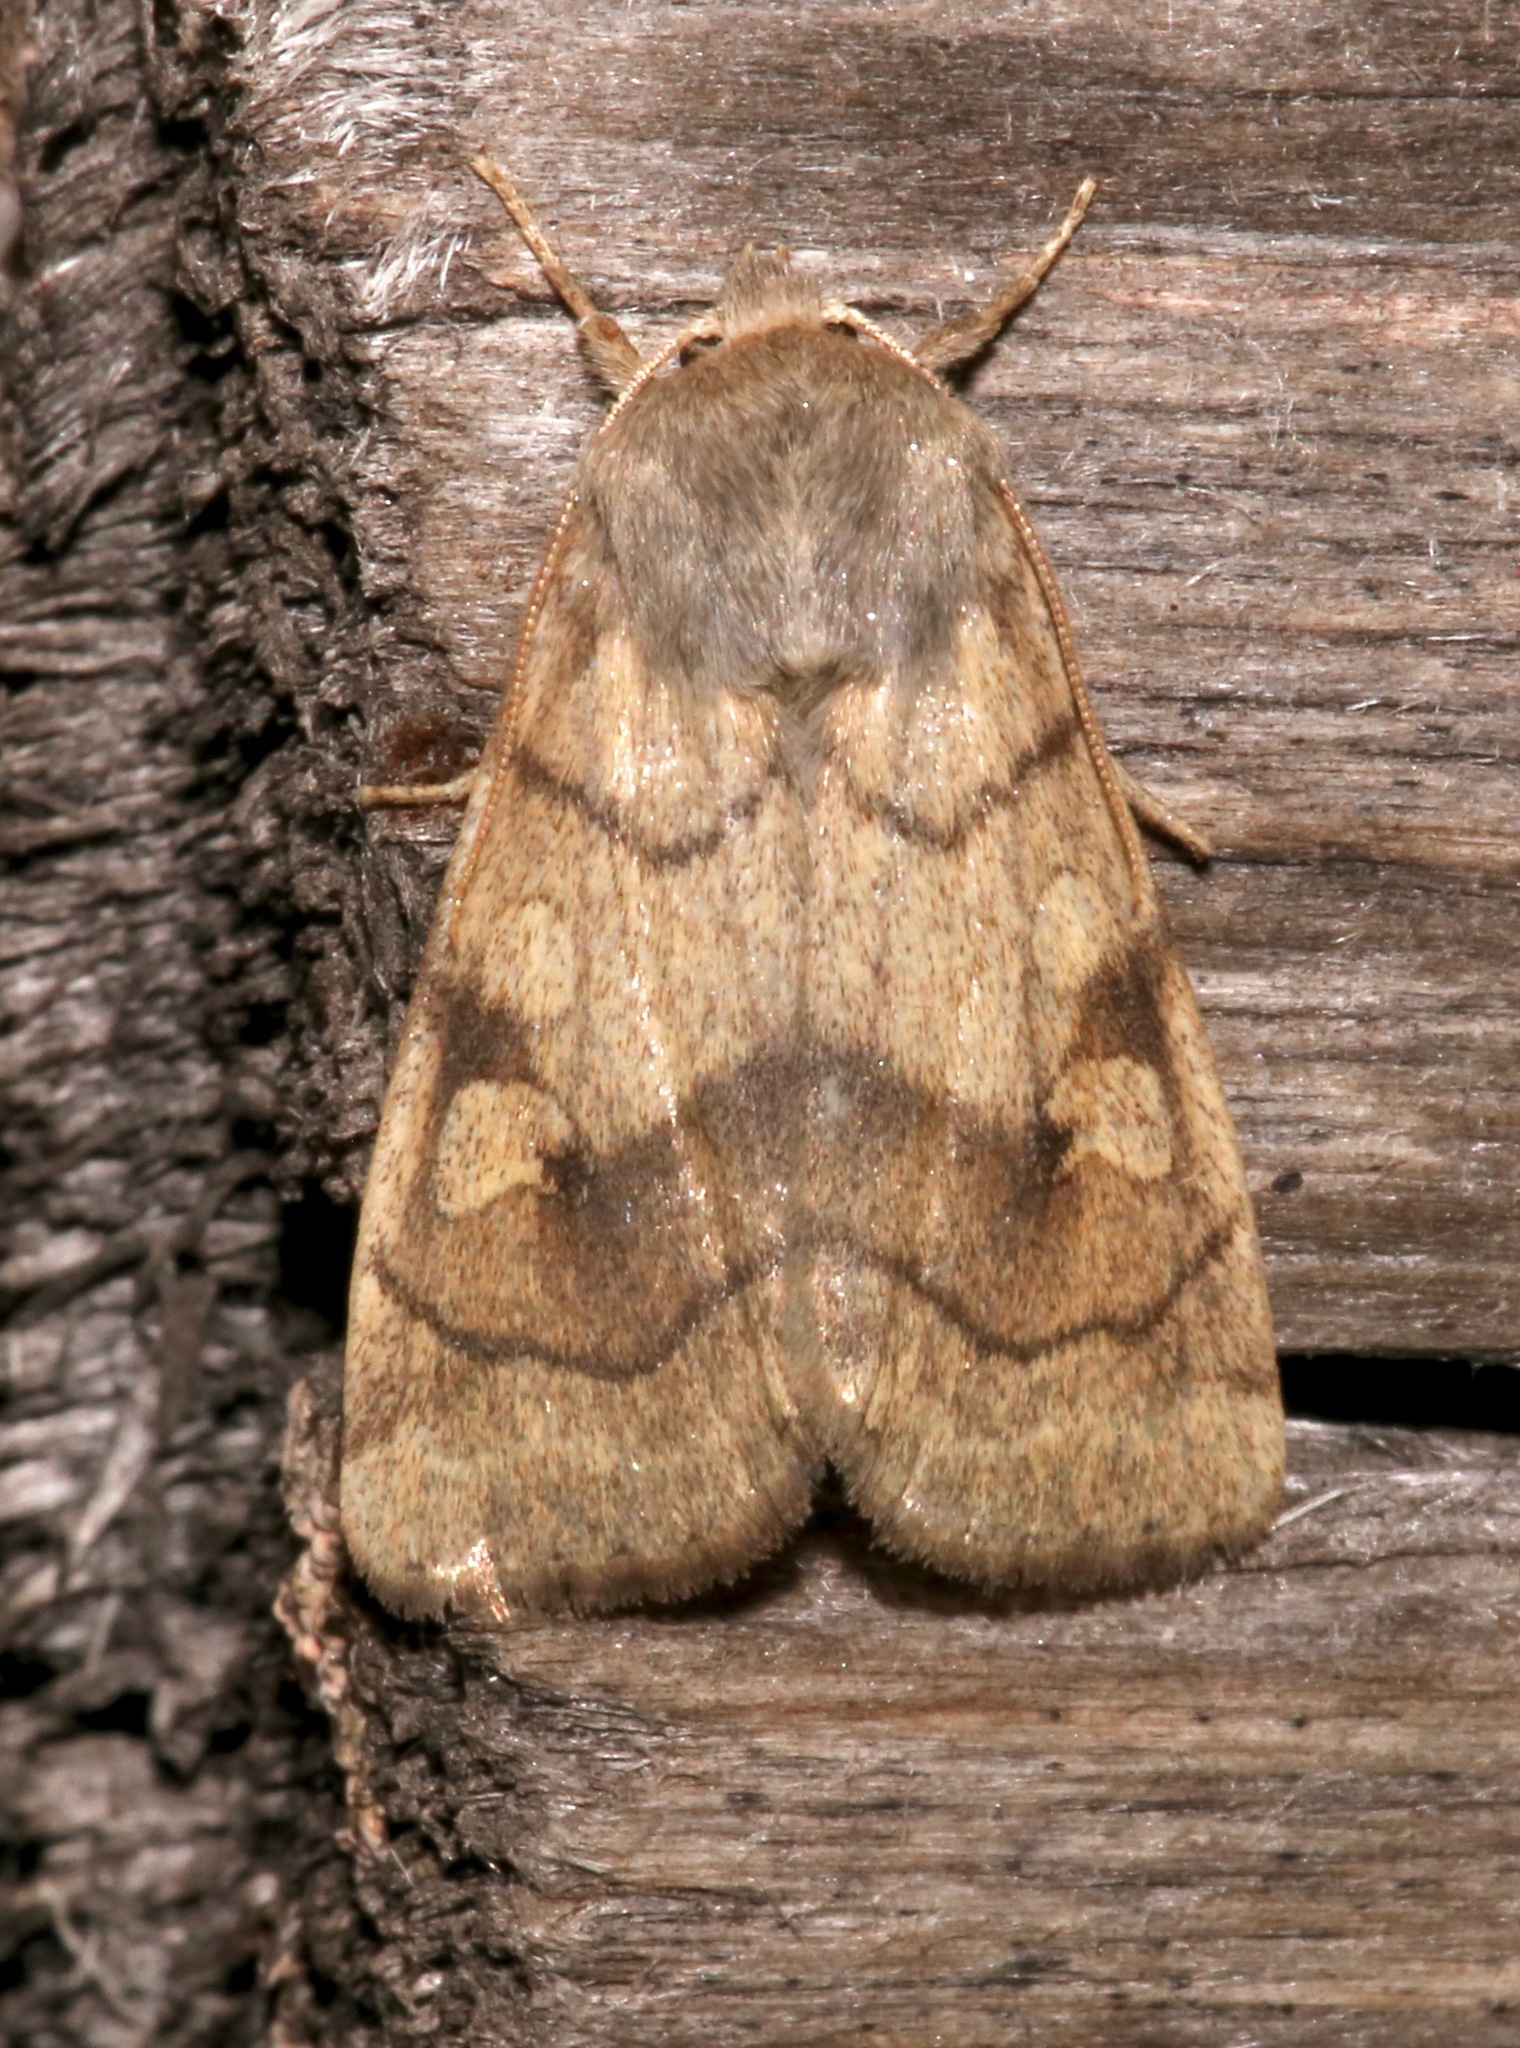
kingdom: Animalia
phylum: Arthropoda
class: Insecta
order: Lepidoptera
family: Noctuidae
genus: Enargia
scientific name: Enargia infumata
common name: Smoked sallow
